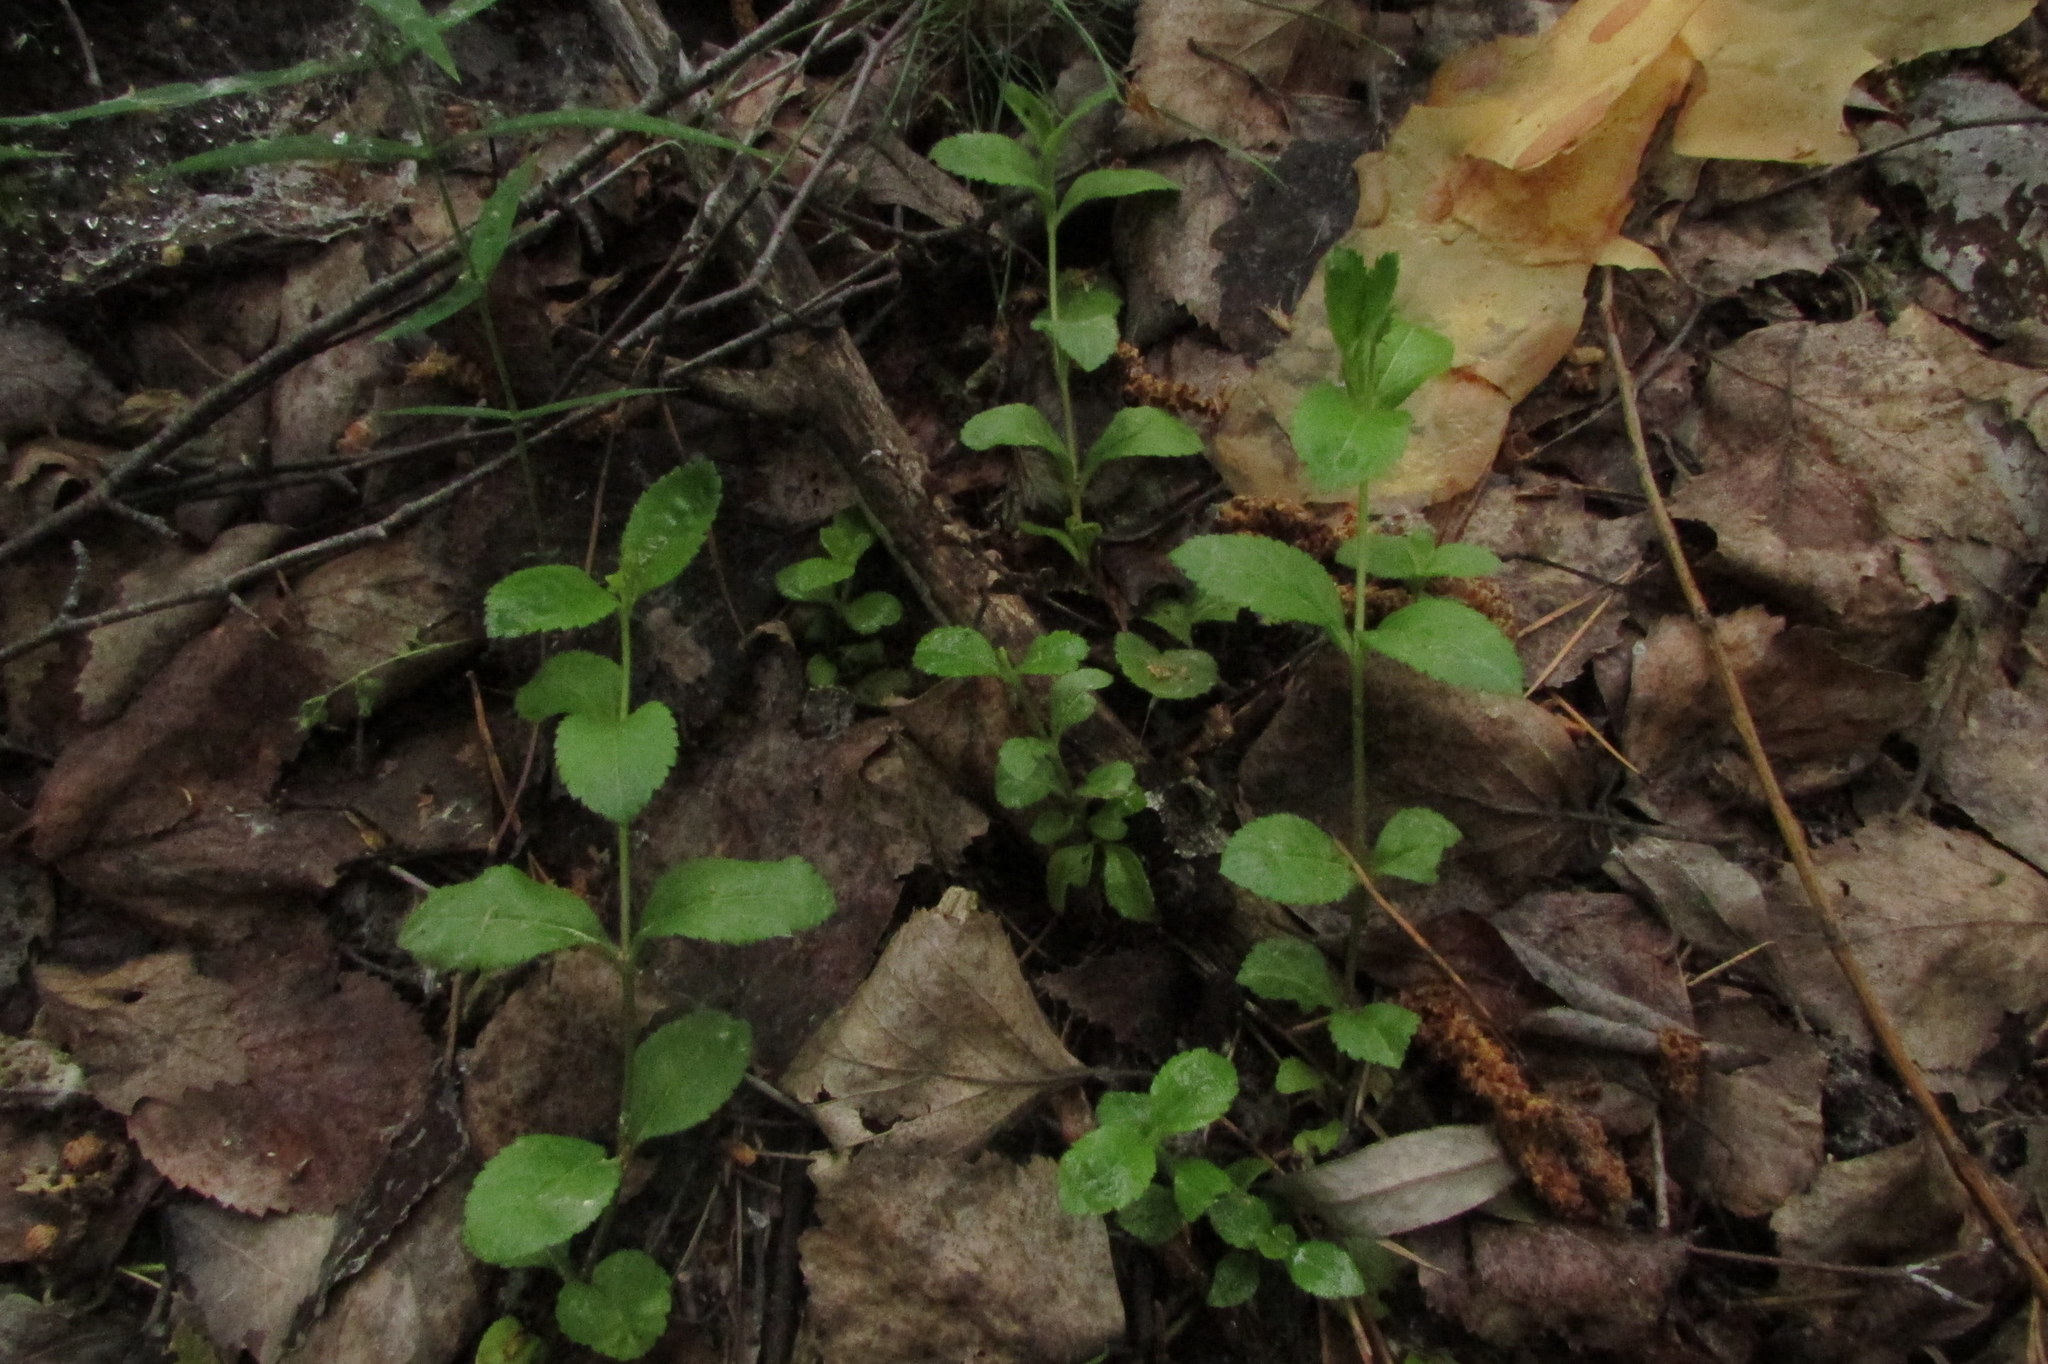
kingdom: Plantae
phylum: Tracheophyta
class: Magnoliopsida
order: Lamiales
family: Plantaginaceae
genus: Veronica
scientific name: Veronica officinalis
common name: Common speedwell
